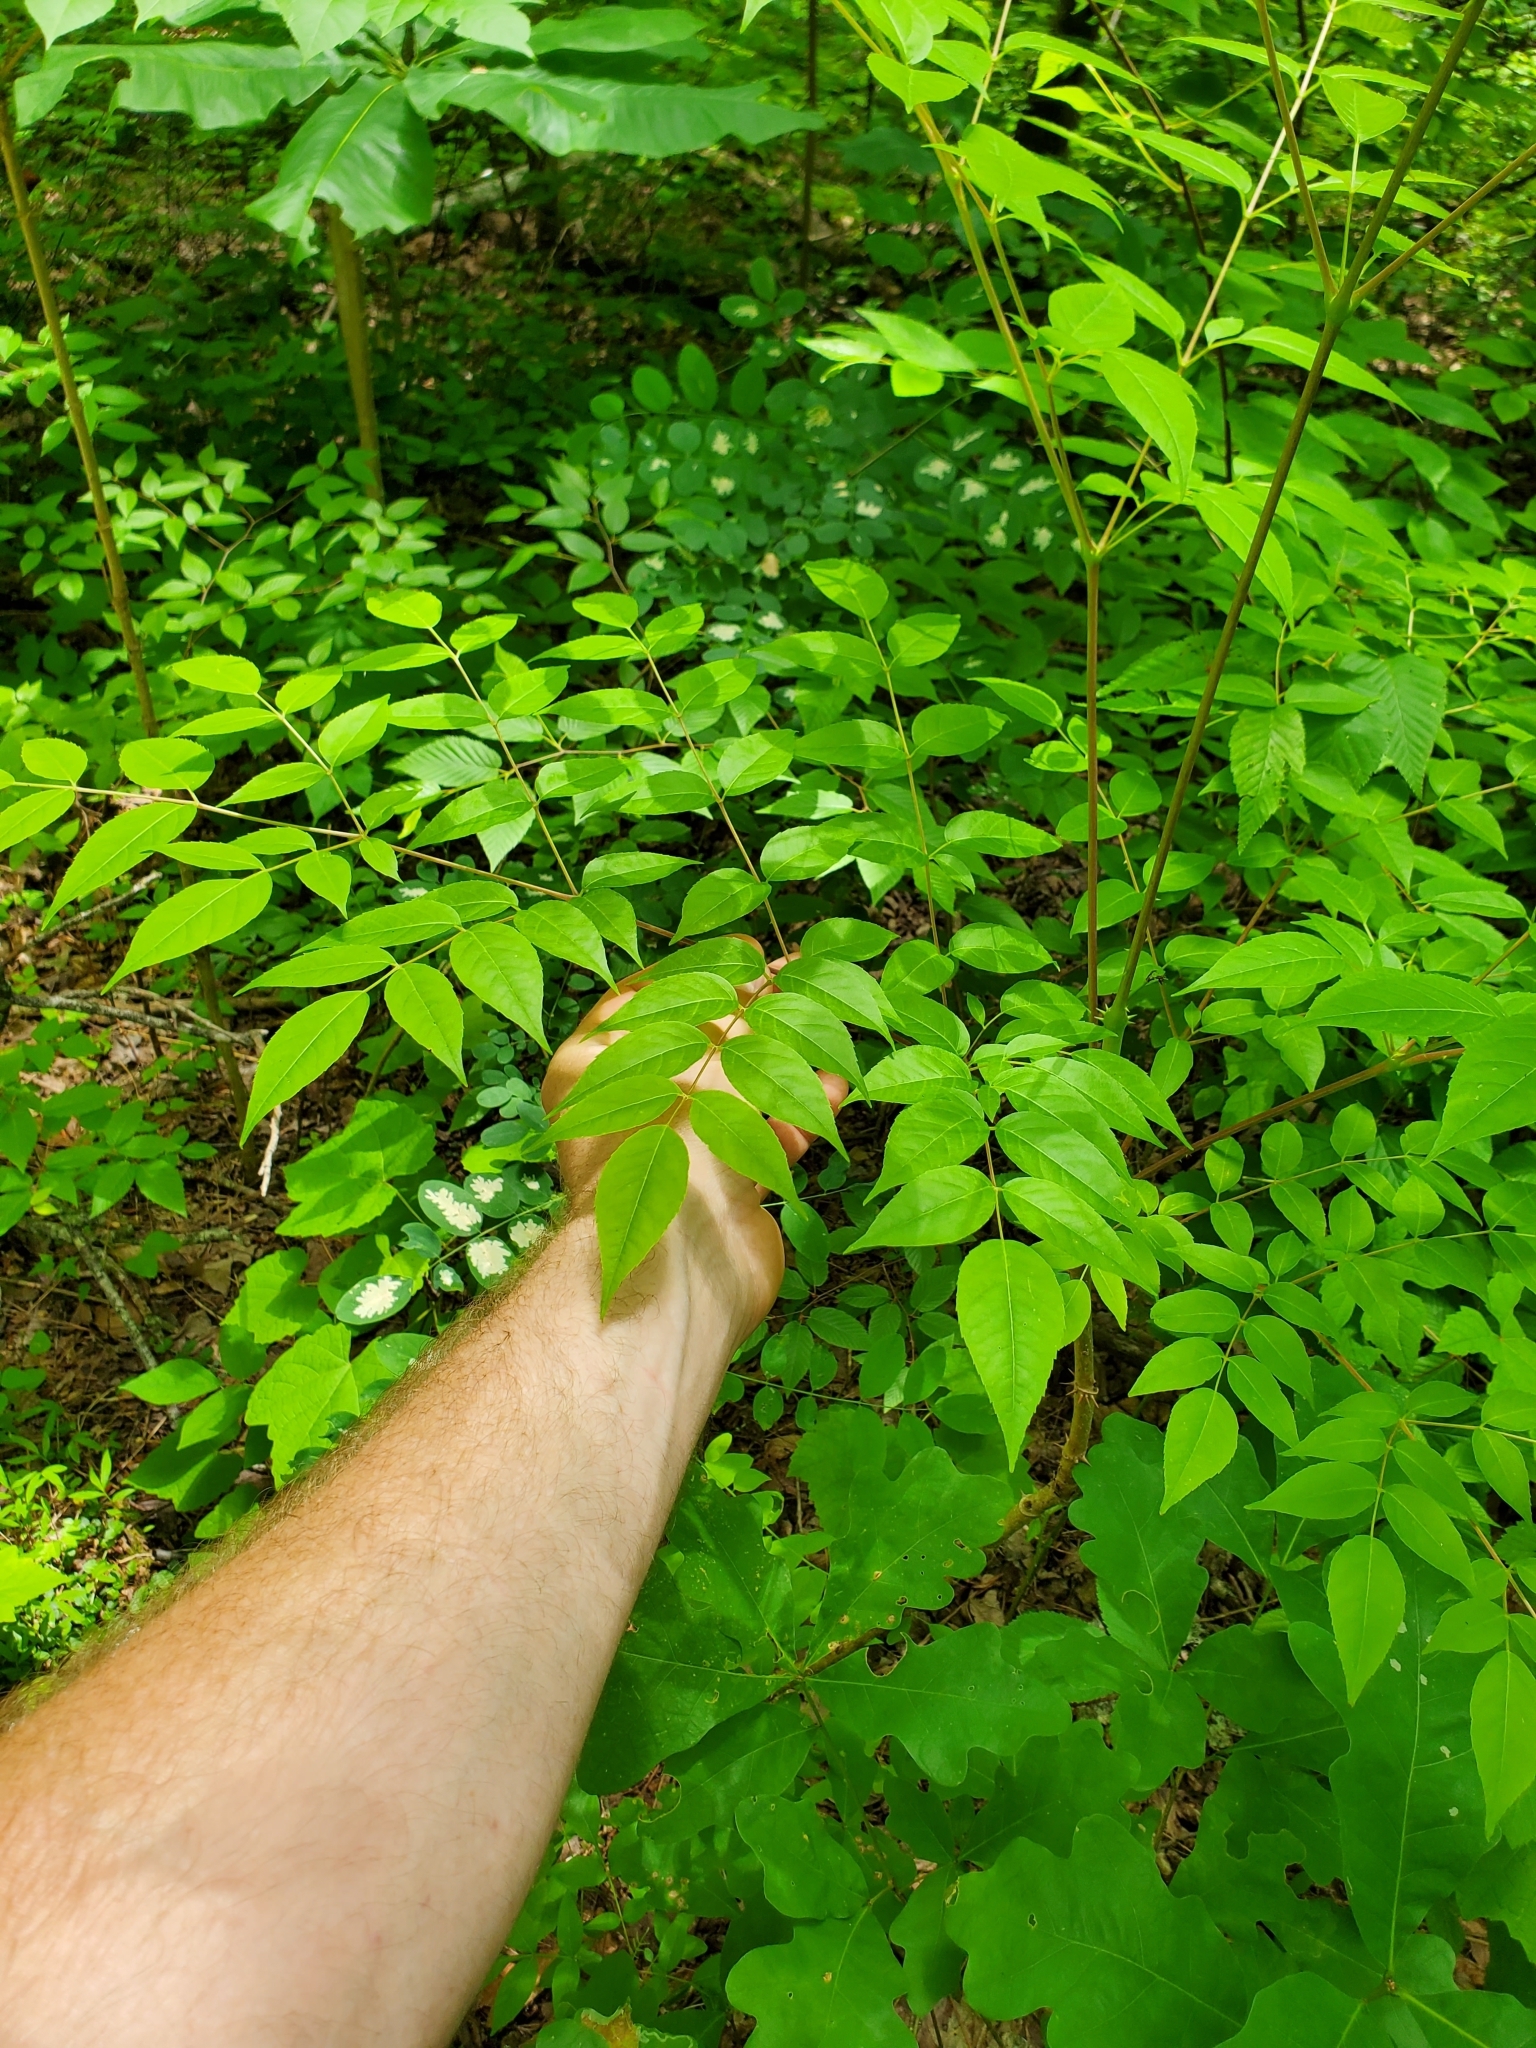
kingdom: Plantae
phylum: Tracheophyta
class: Magnoliopsida
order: Apiales
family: Araliaceae
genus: Aralia
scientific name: Aralia spinosa
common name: Hercules'-club
